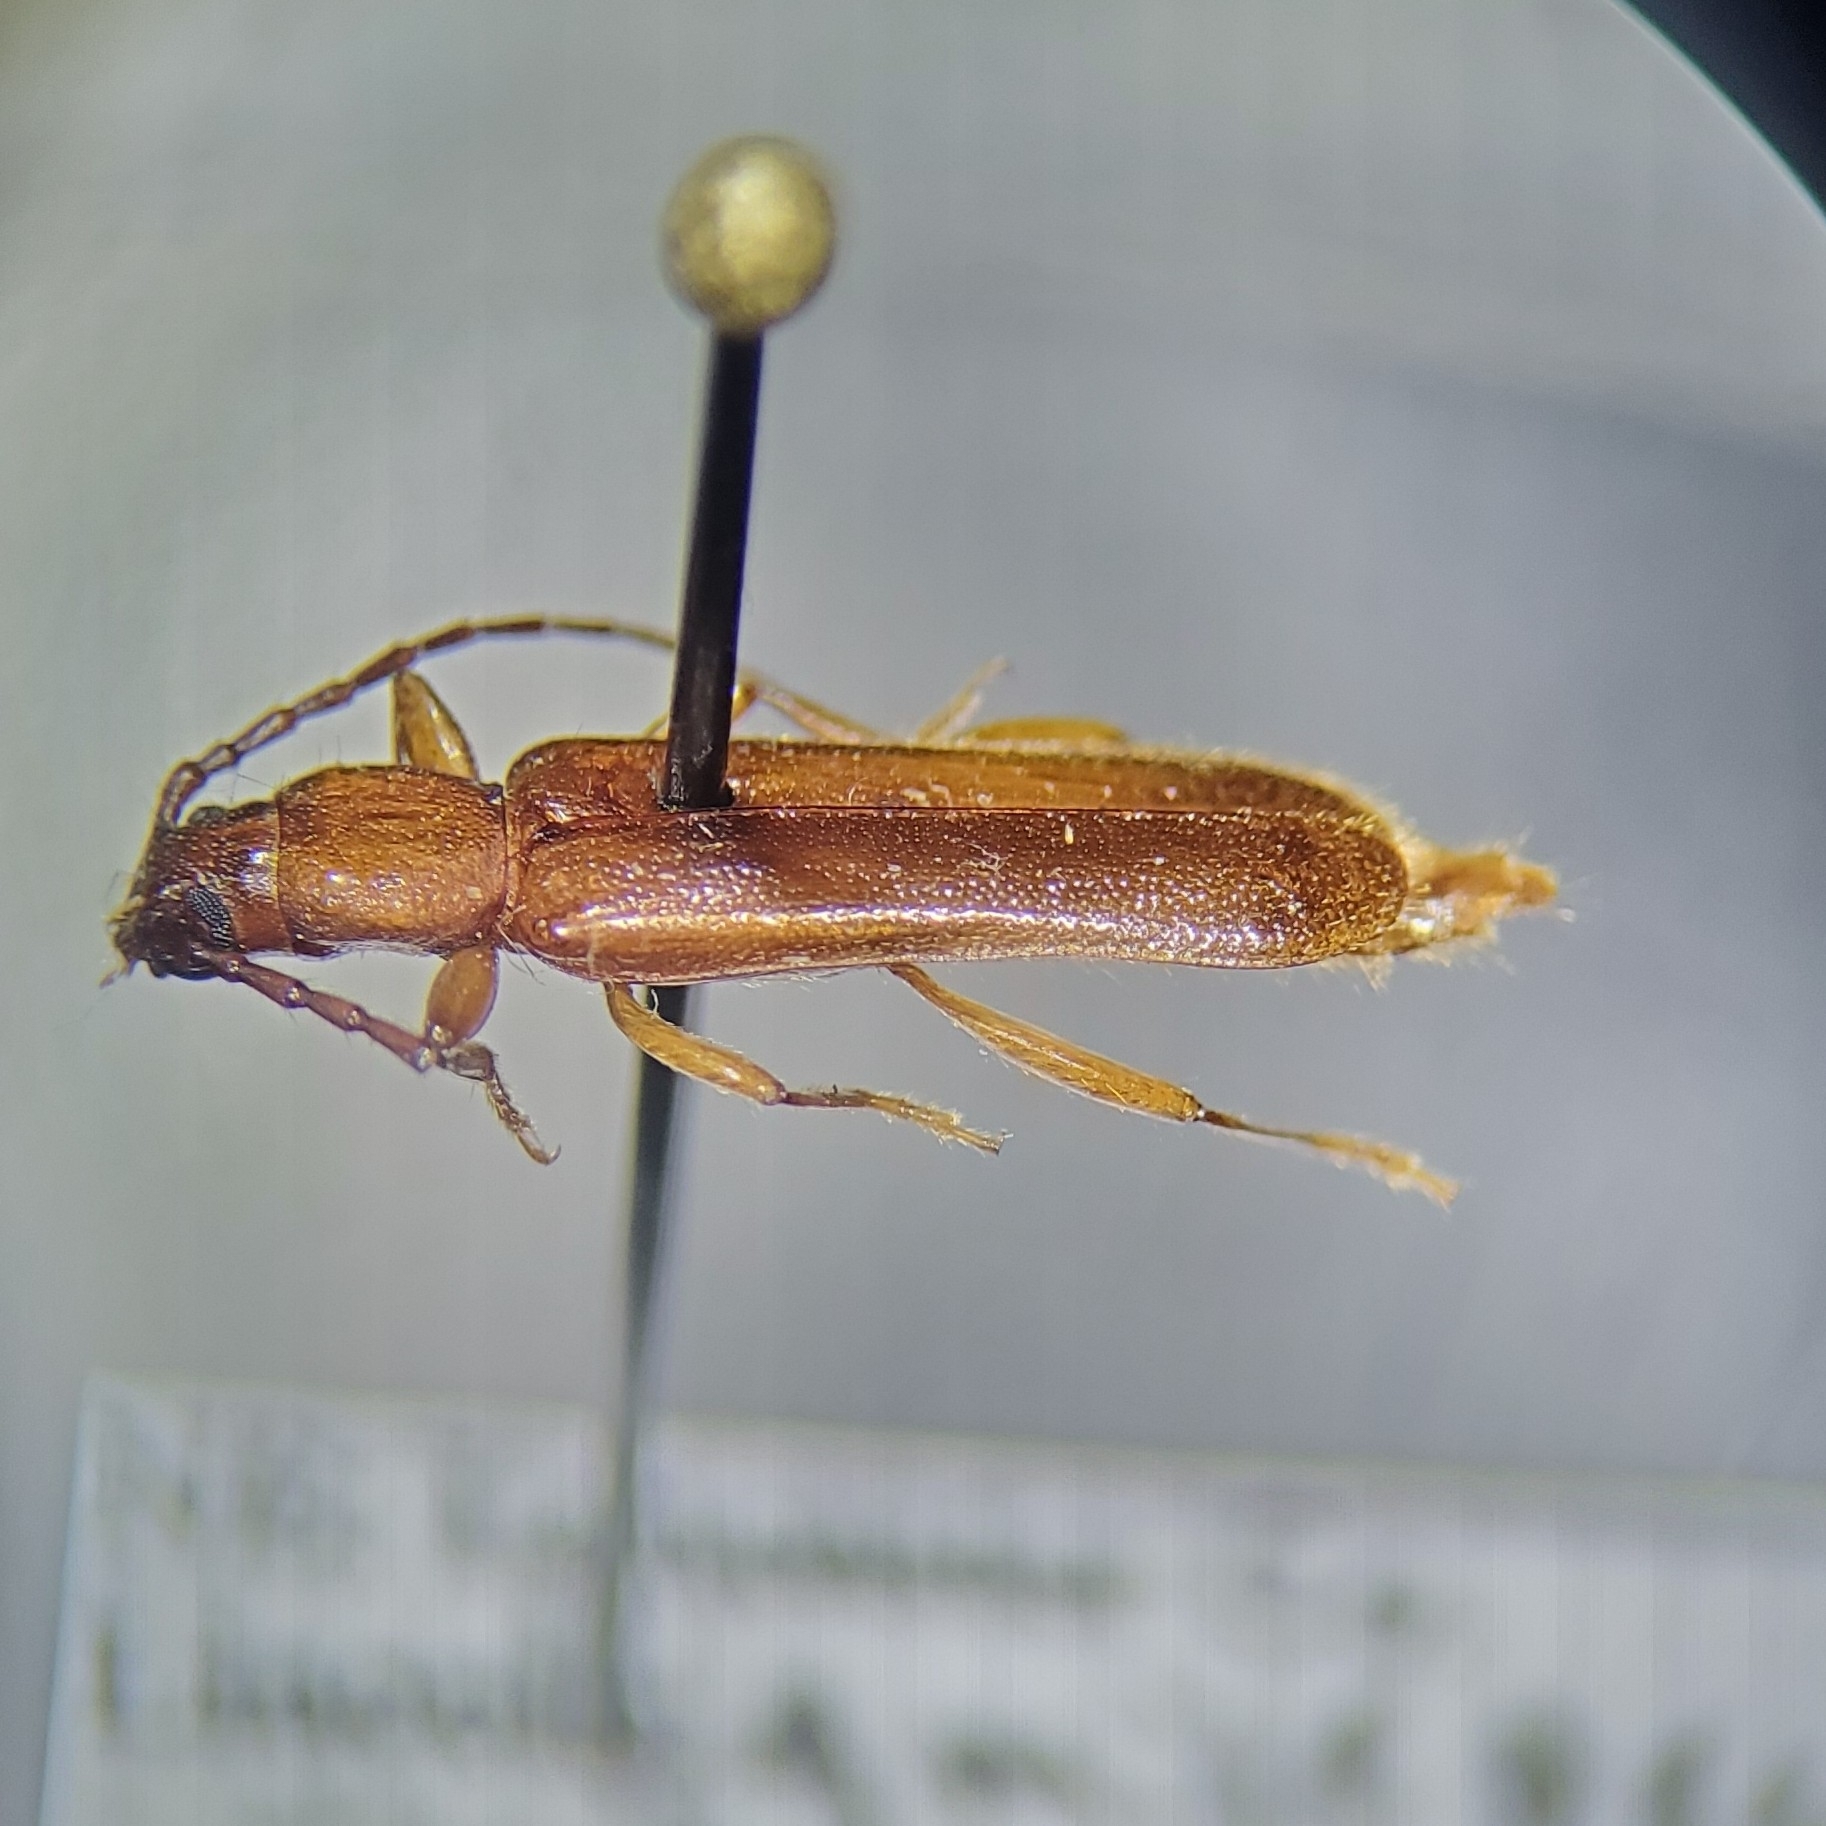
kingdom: Animalia
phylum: Arthropoda
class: Insecta
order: Coleoptera
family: Cerambycidae
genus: Smodicum
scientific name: Smodicum cucujiforme
